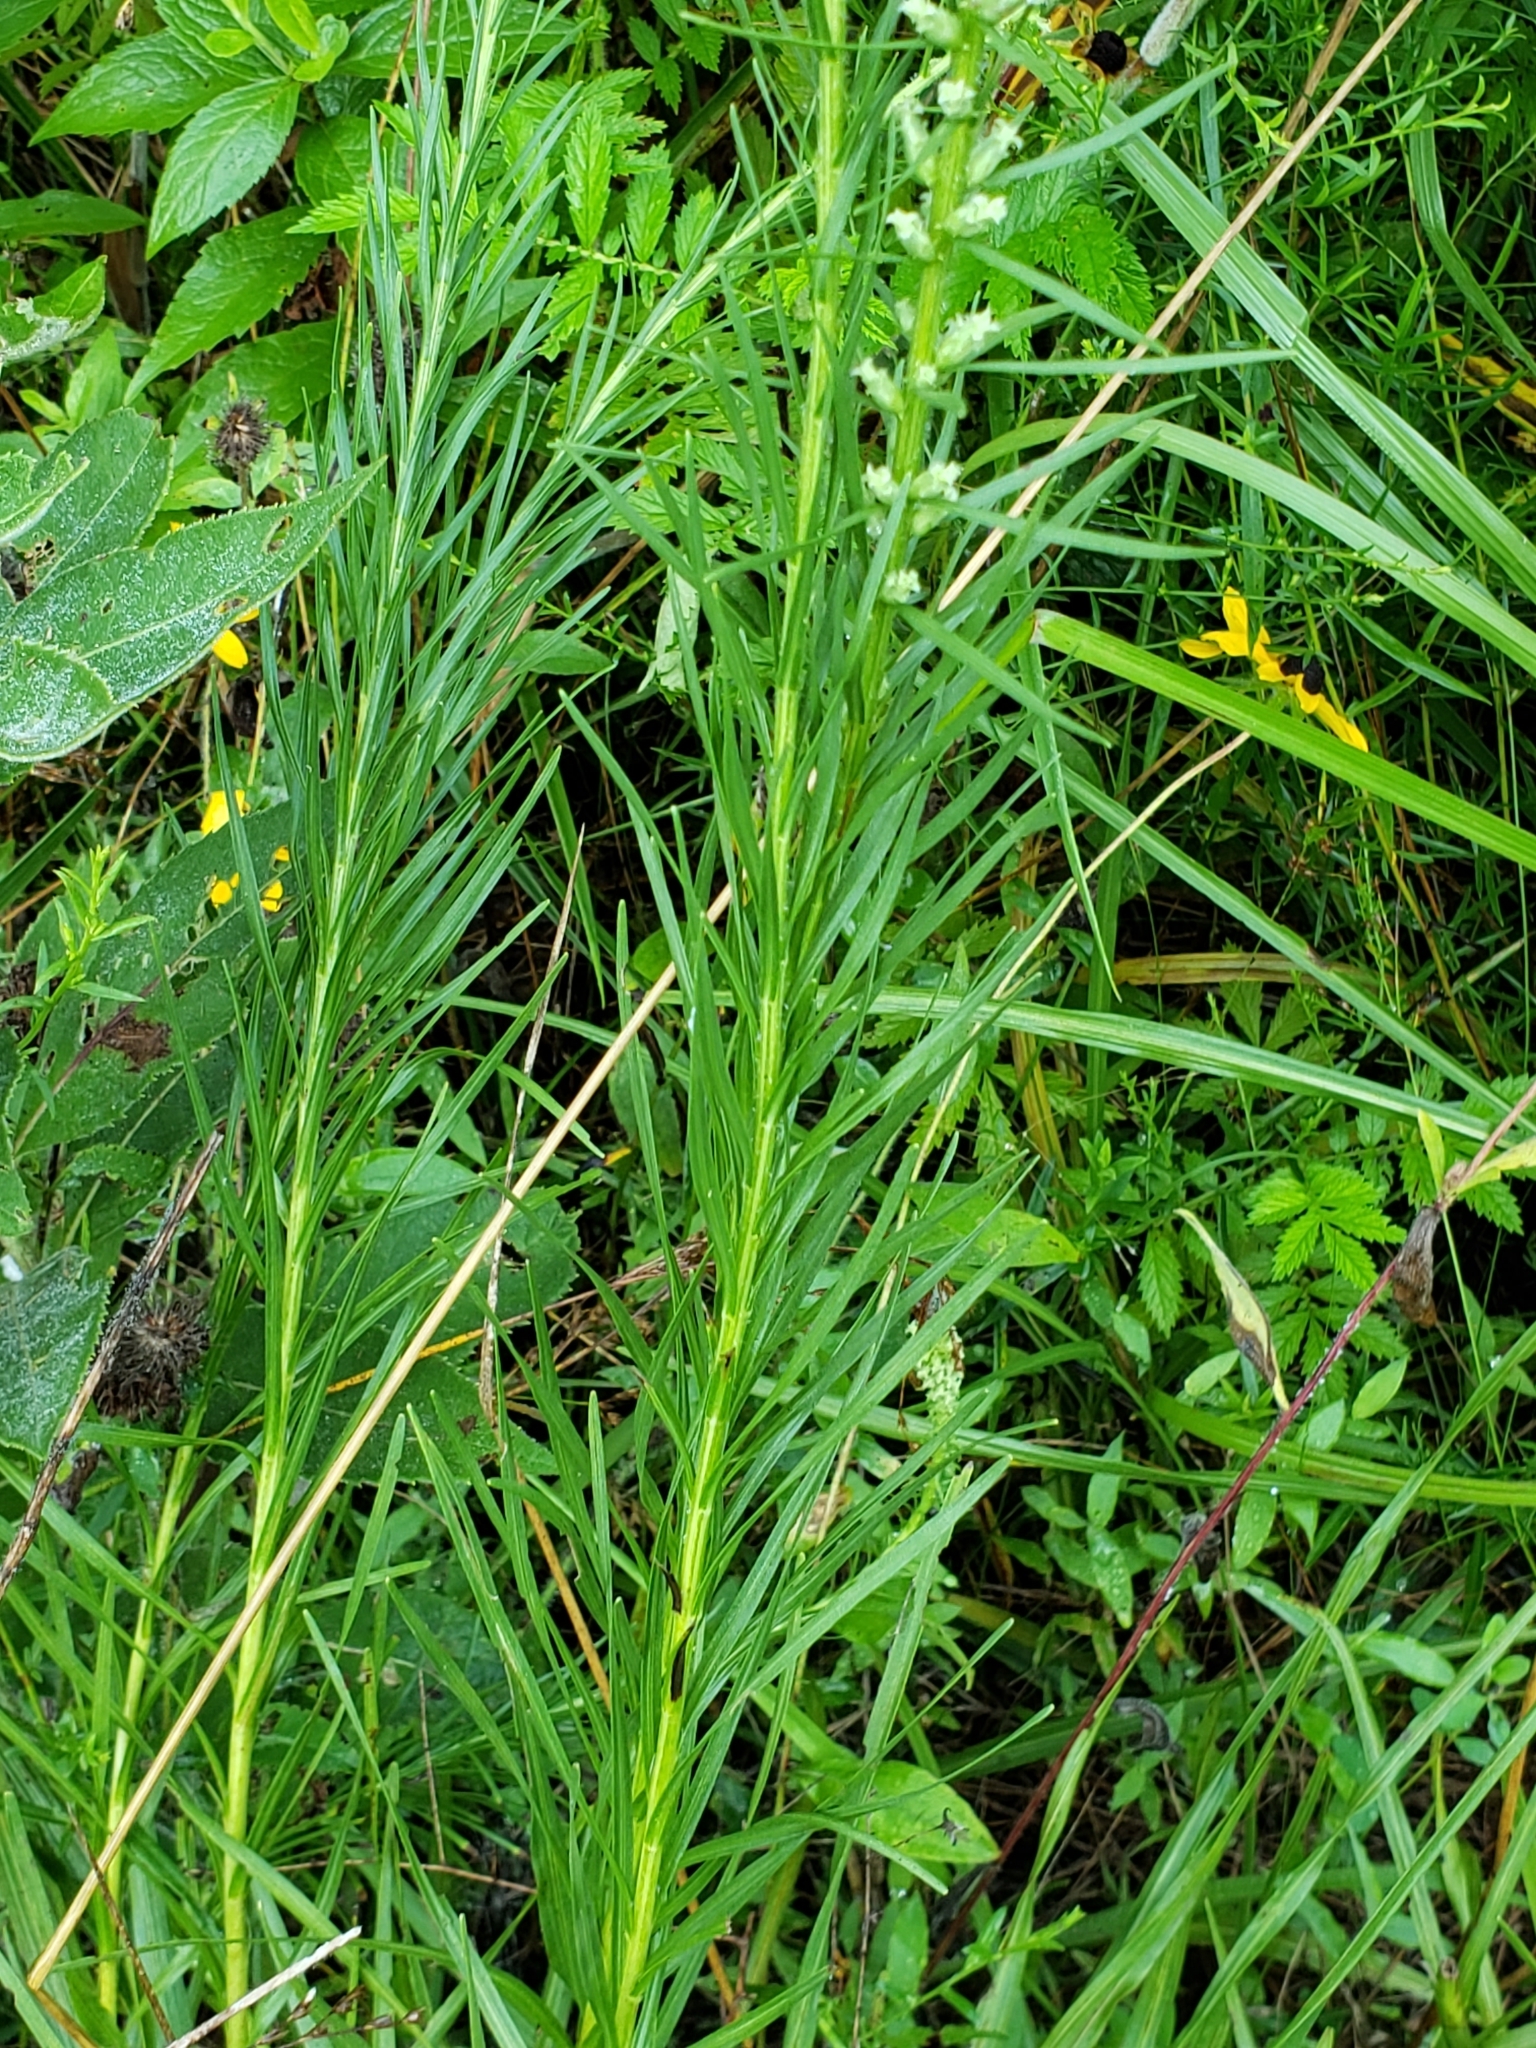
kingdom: Plantae
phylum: Tracheophyta
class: Magnoliopsida
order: Asterales
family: Asteraceae
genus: Liatris
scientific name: Liatris pycnostachya
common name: Cattail gayfeather
